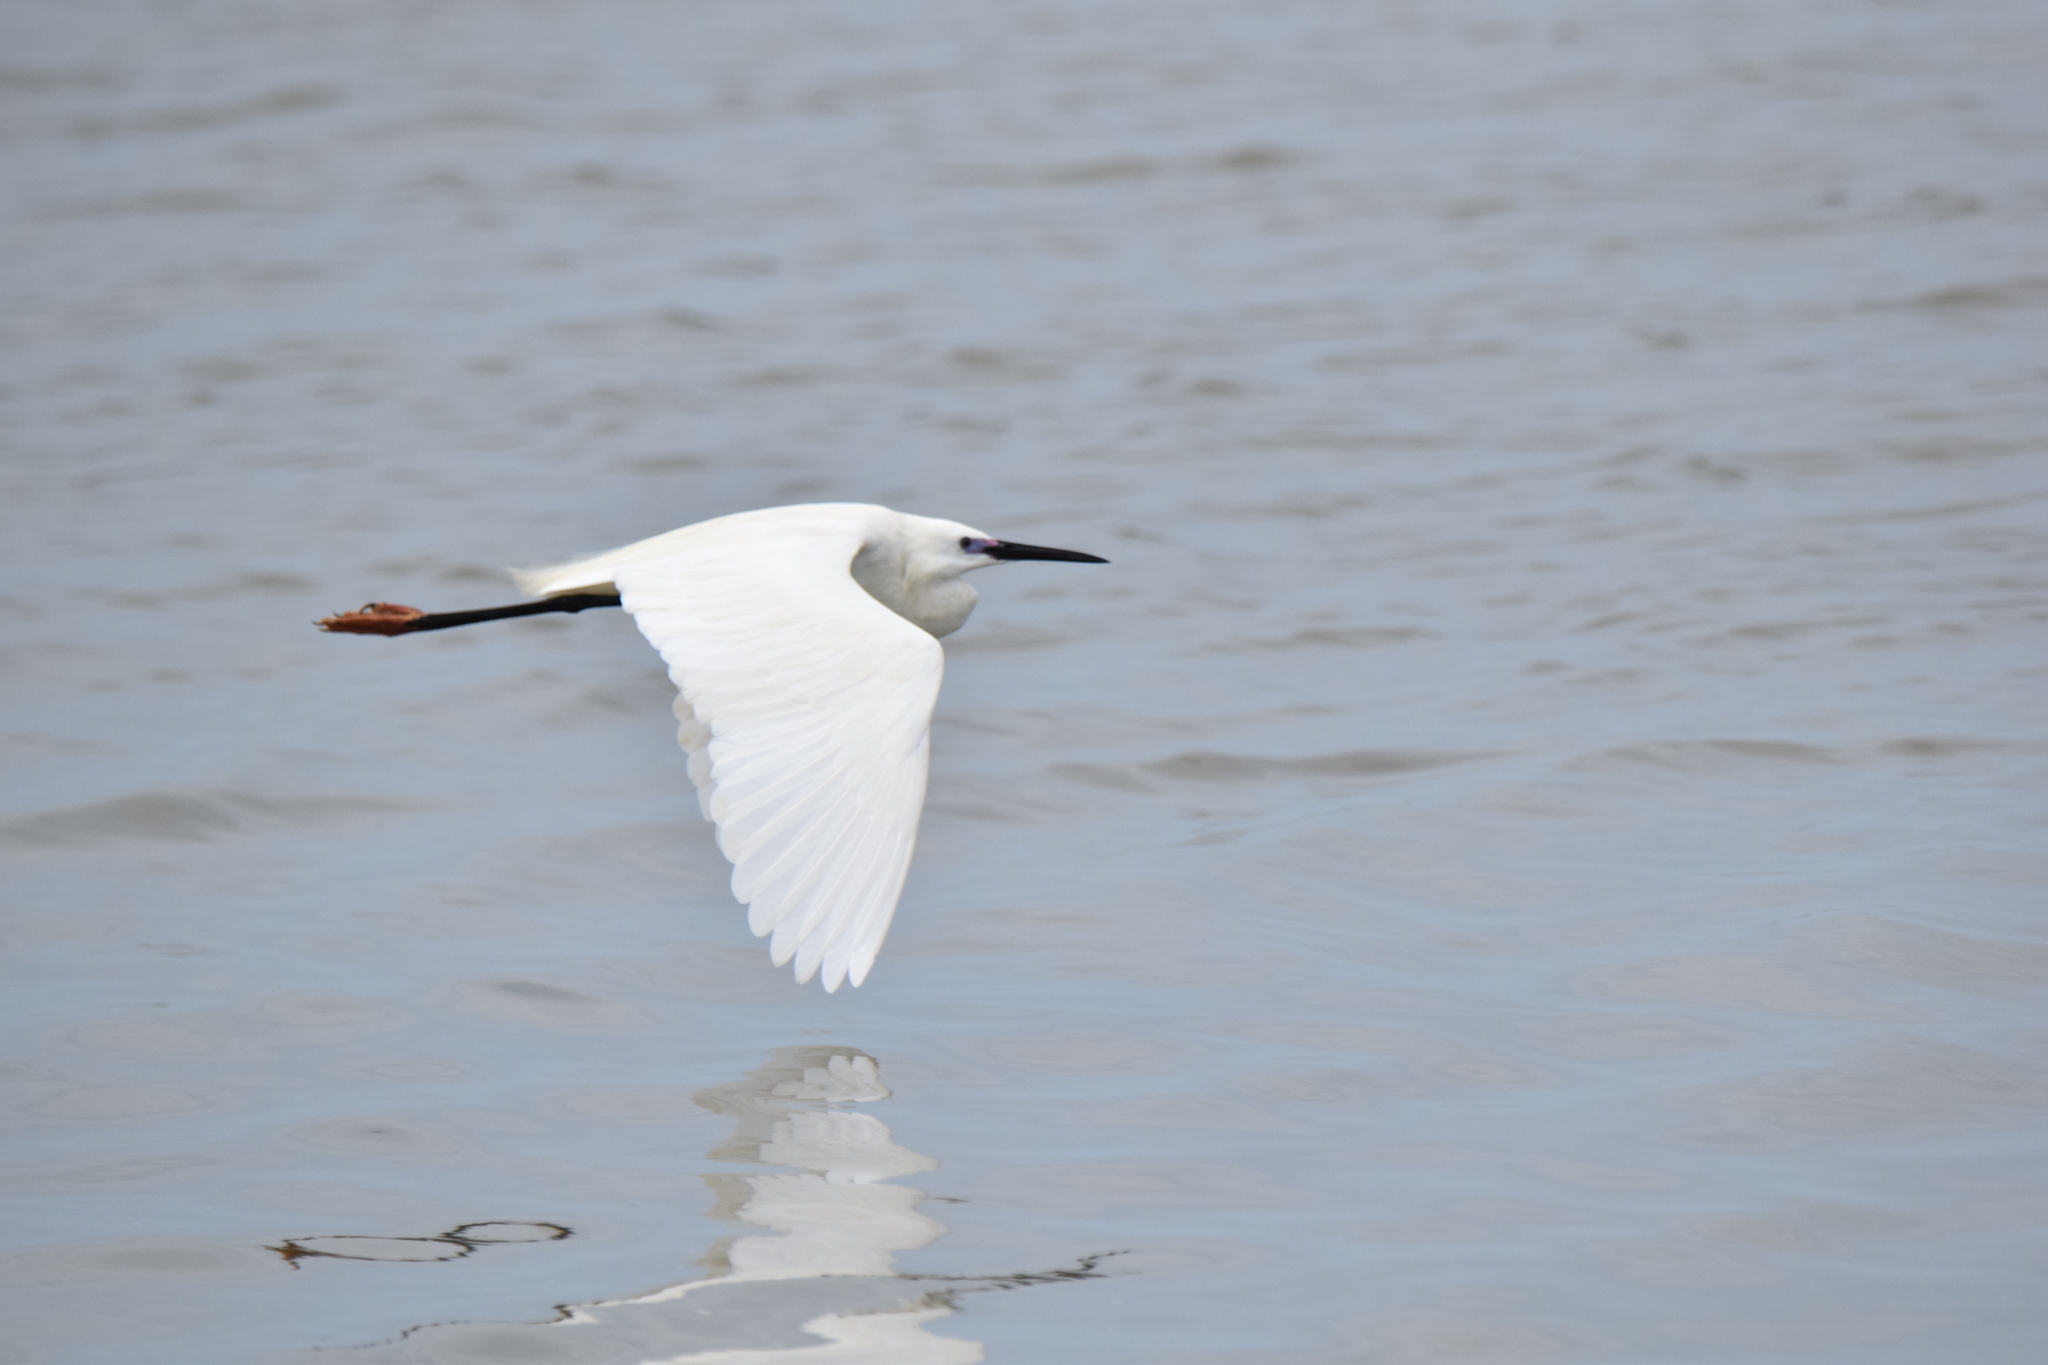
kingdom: Animalia
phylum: Chordata
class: Aves
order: Pelecaniformes
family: Ardeidae
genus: Egretta
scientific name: Egretta garzetta
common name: Little egret
